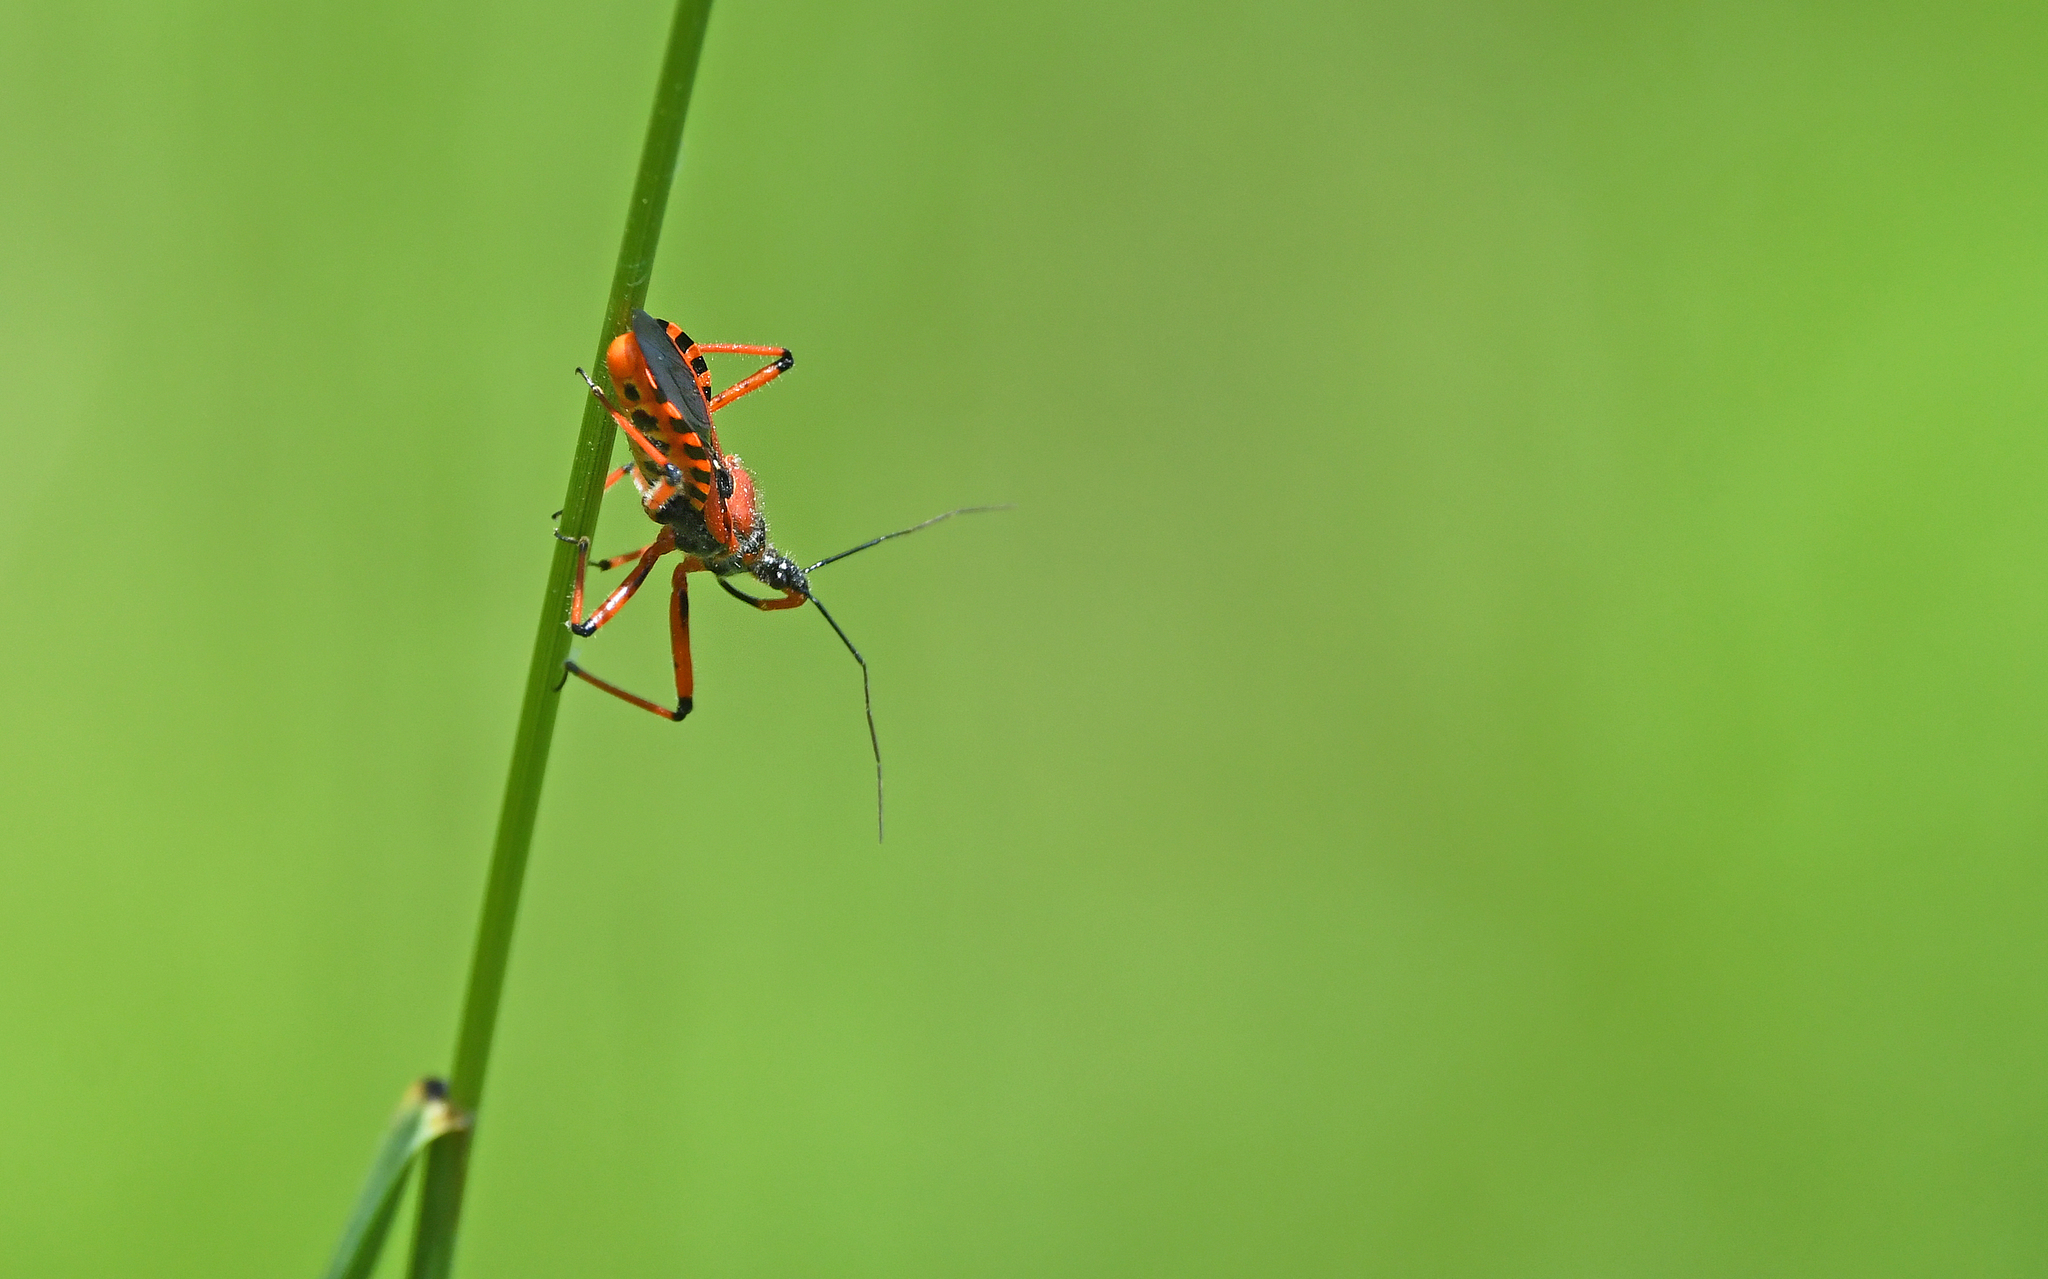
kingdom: Animalia
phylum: Arthropoda
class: Insecta
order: Hemiptera
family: Reduviidae
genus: Rhynocoris
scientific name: Rhynocoris iracundus
